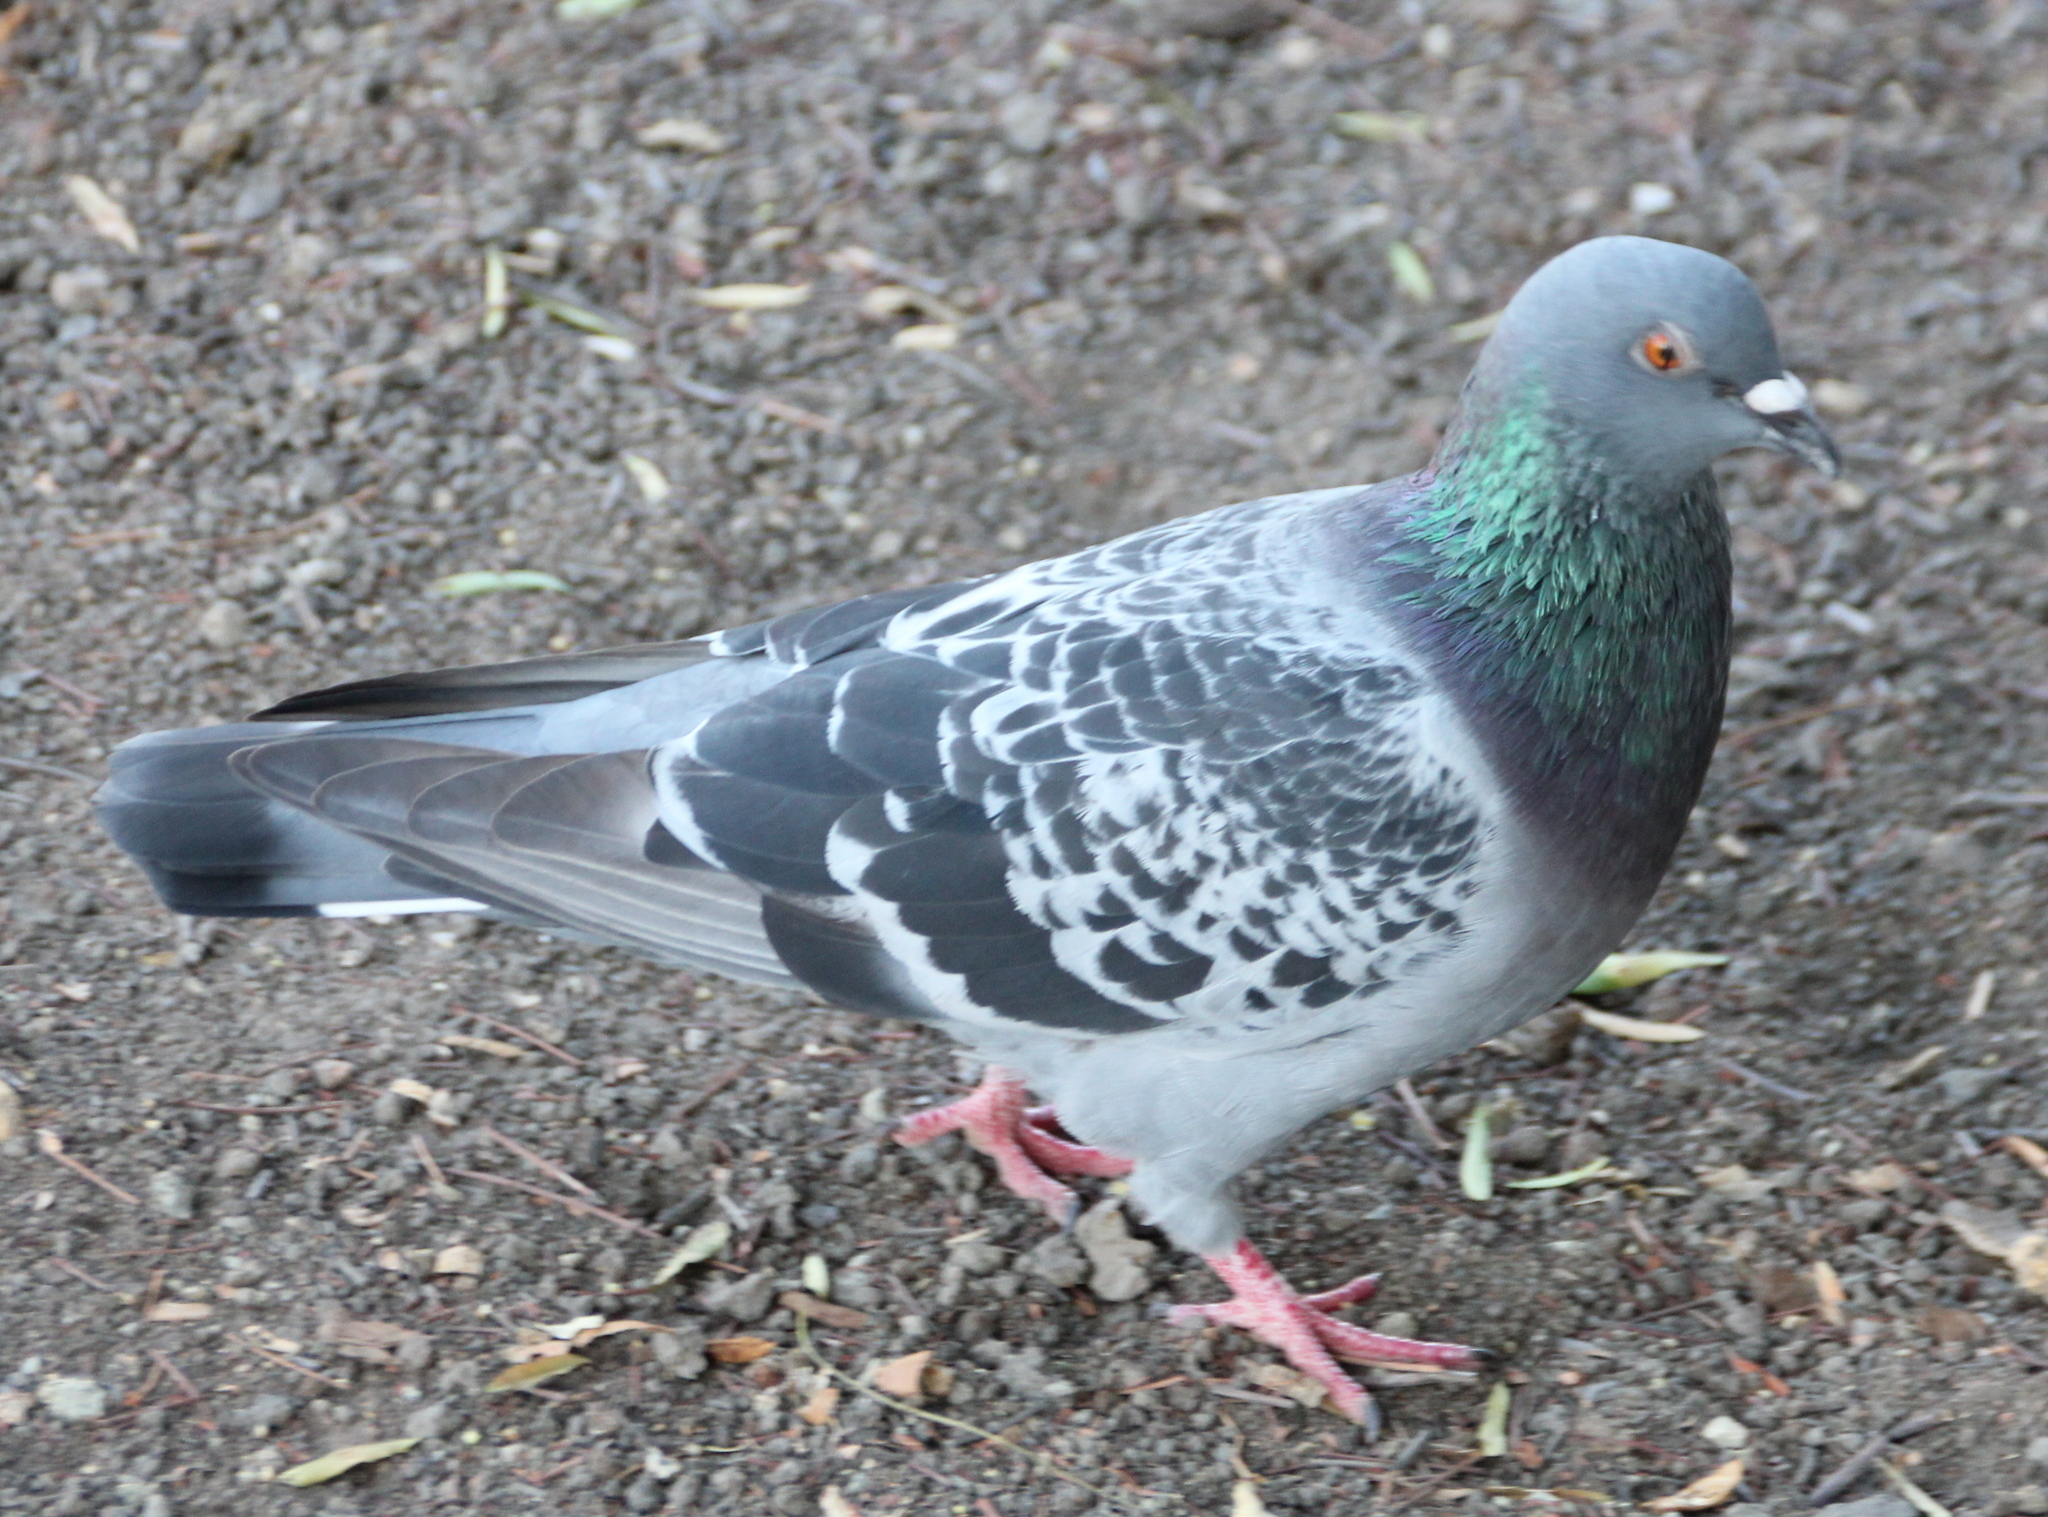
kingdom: Animalia
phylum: Chordata
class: Aves
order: Columbiformes
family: Columbidae
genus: Columba
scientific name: Columba livia
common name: Rock pigeon
